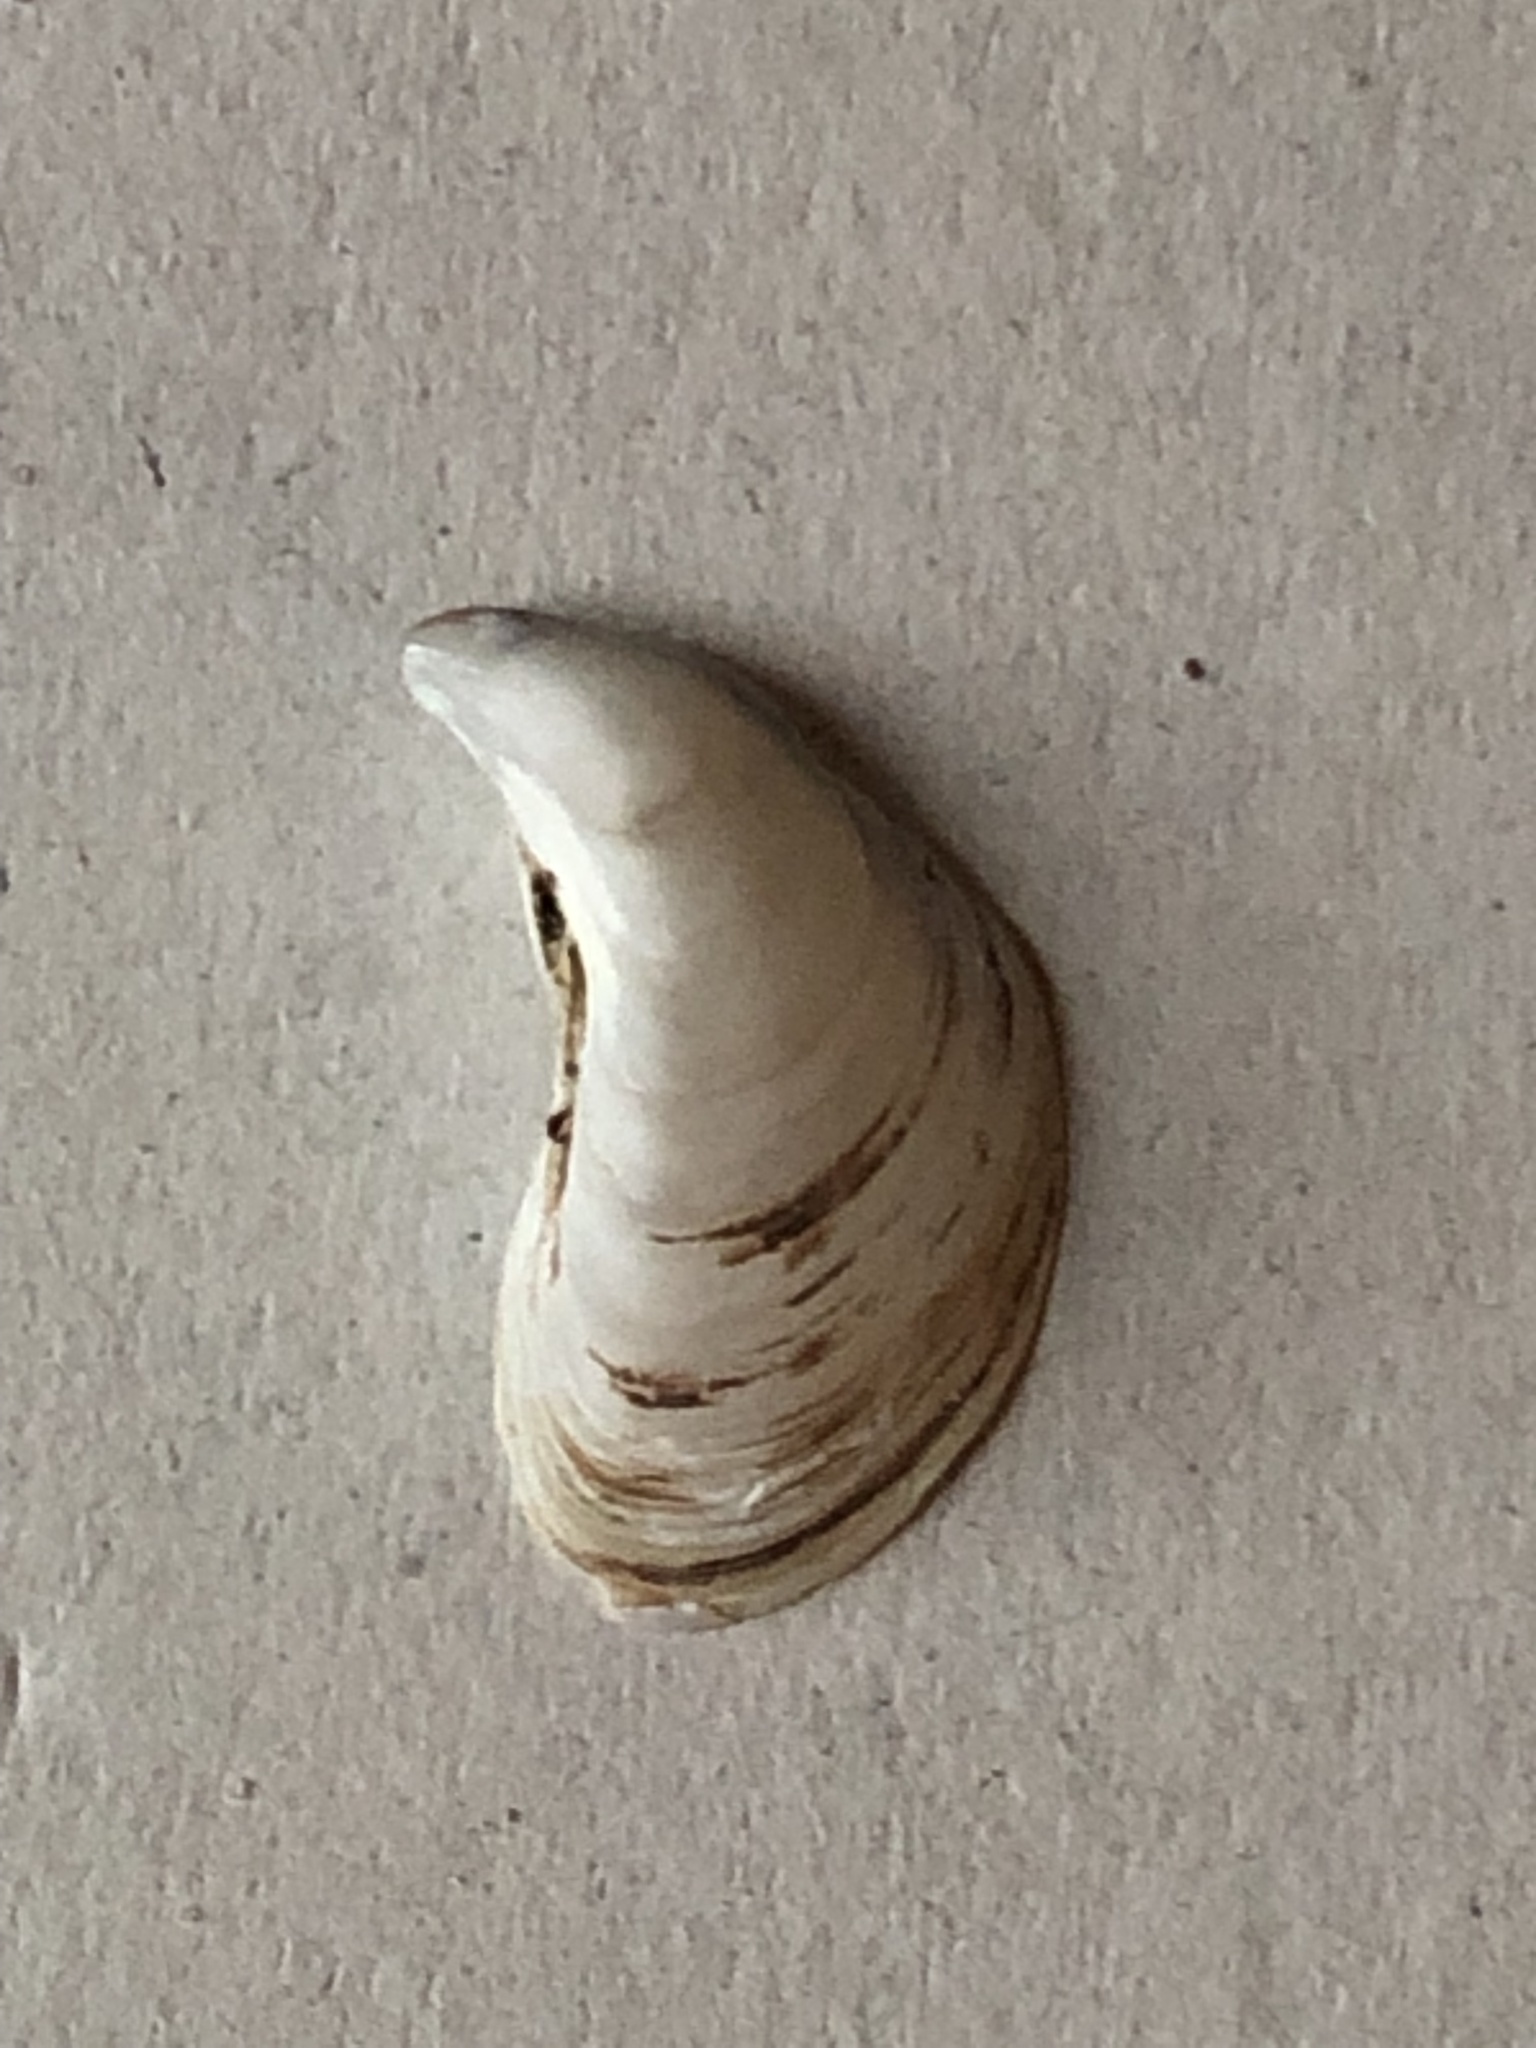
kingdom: Animalia
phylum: Mollusca
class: Bivalvia
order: Myida
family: Dreissenidae
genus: Dreissena
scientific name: Dreissena bugensis
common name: Quagga mussel
